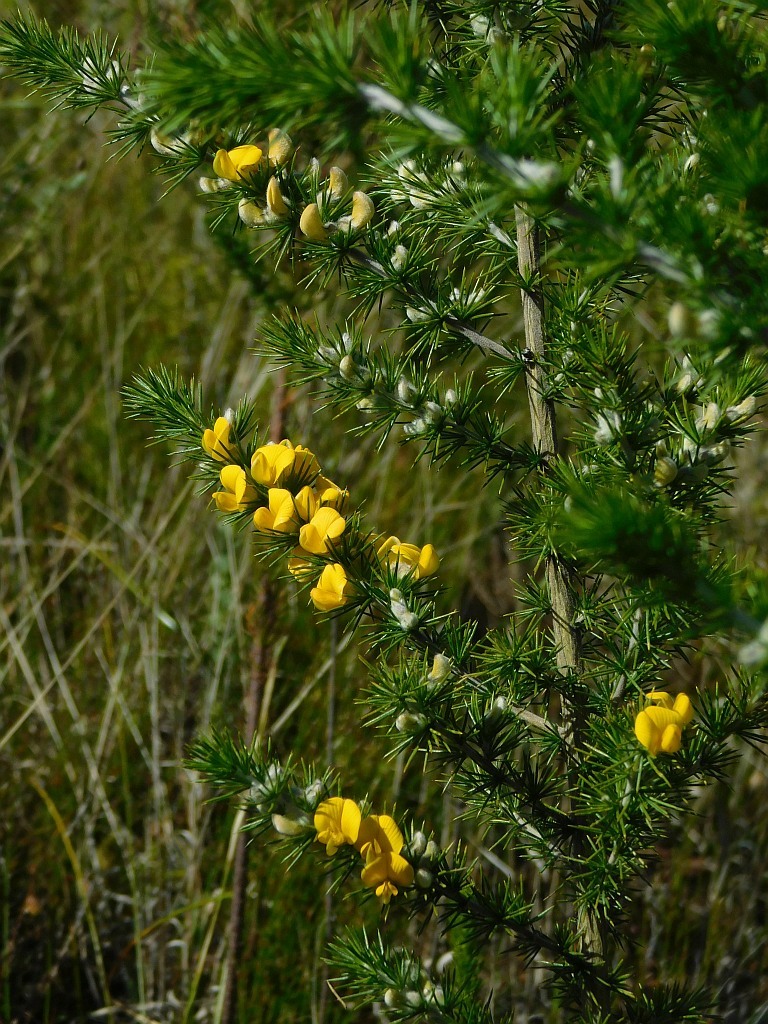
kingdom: Plantae
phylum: Tracheophyta
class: Magnoliopsida
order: Fabales
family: Fabaceae
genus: Aspalathus
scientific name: Aspalathus hirta
